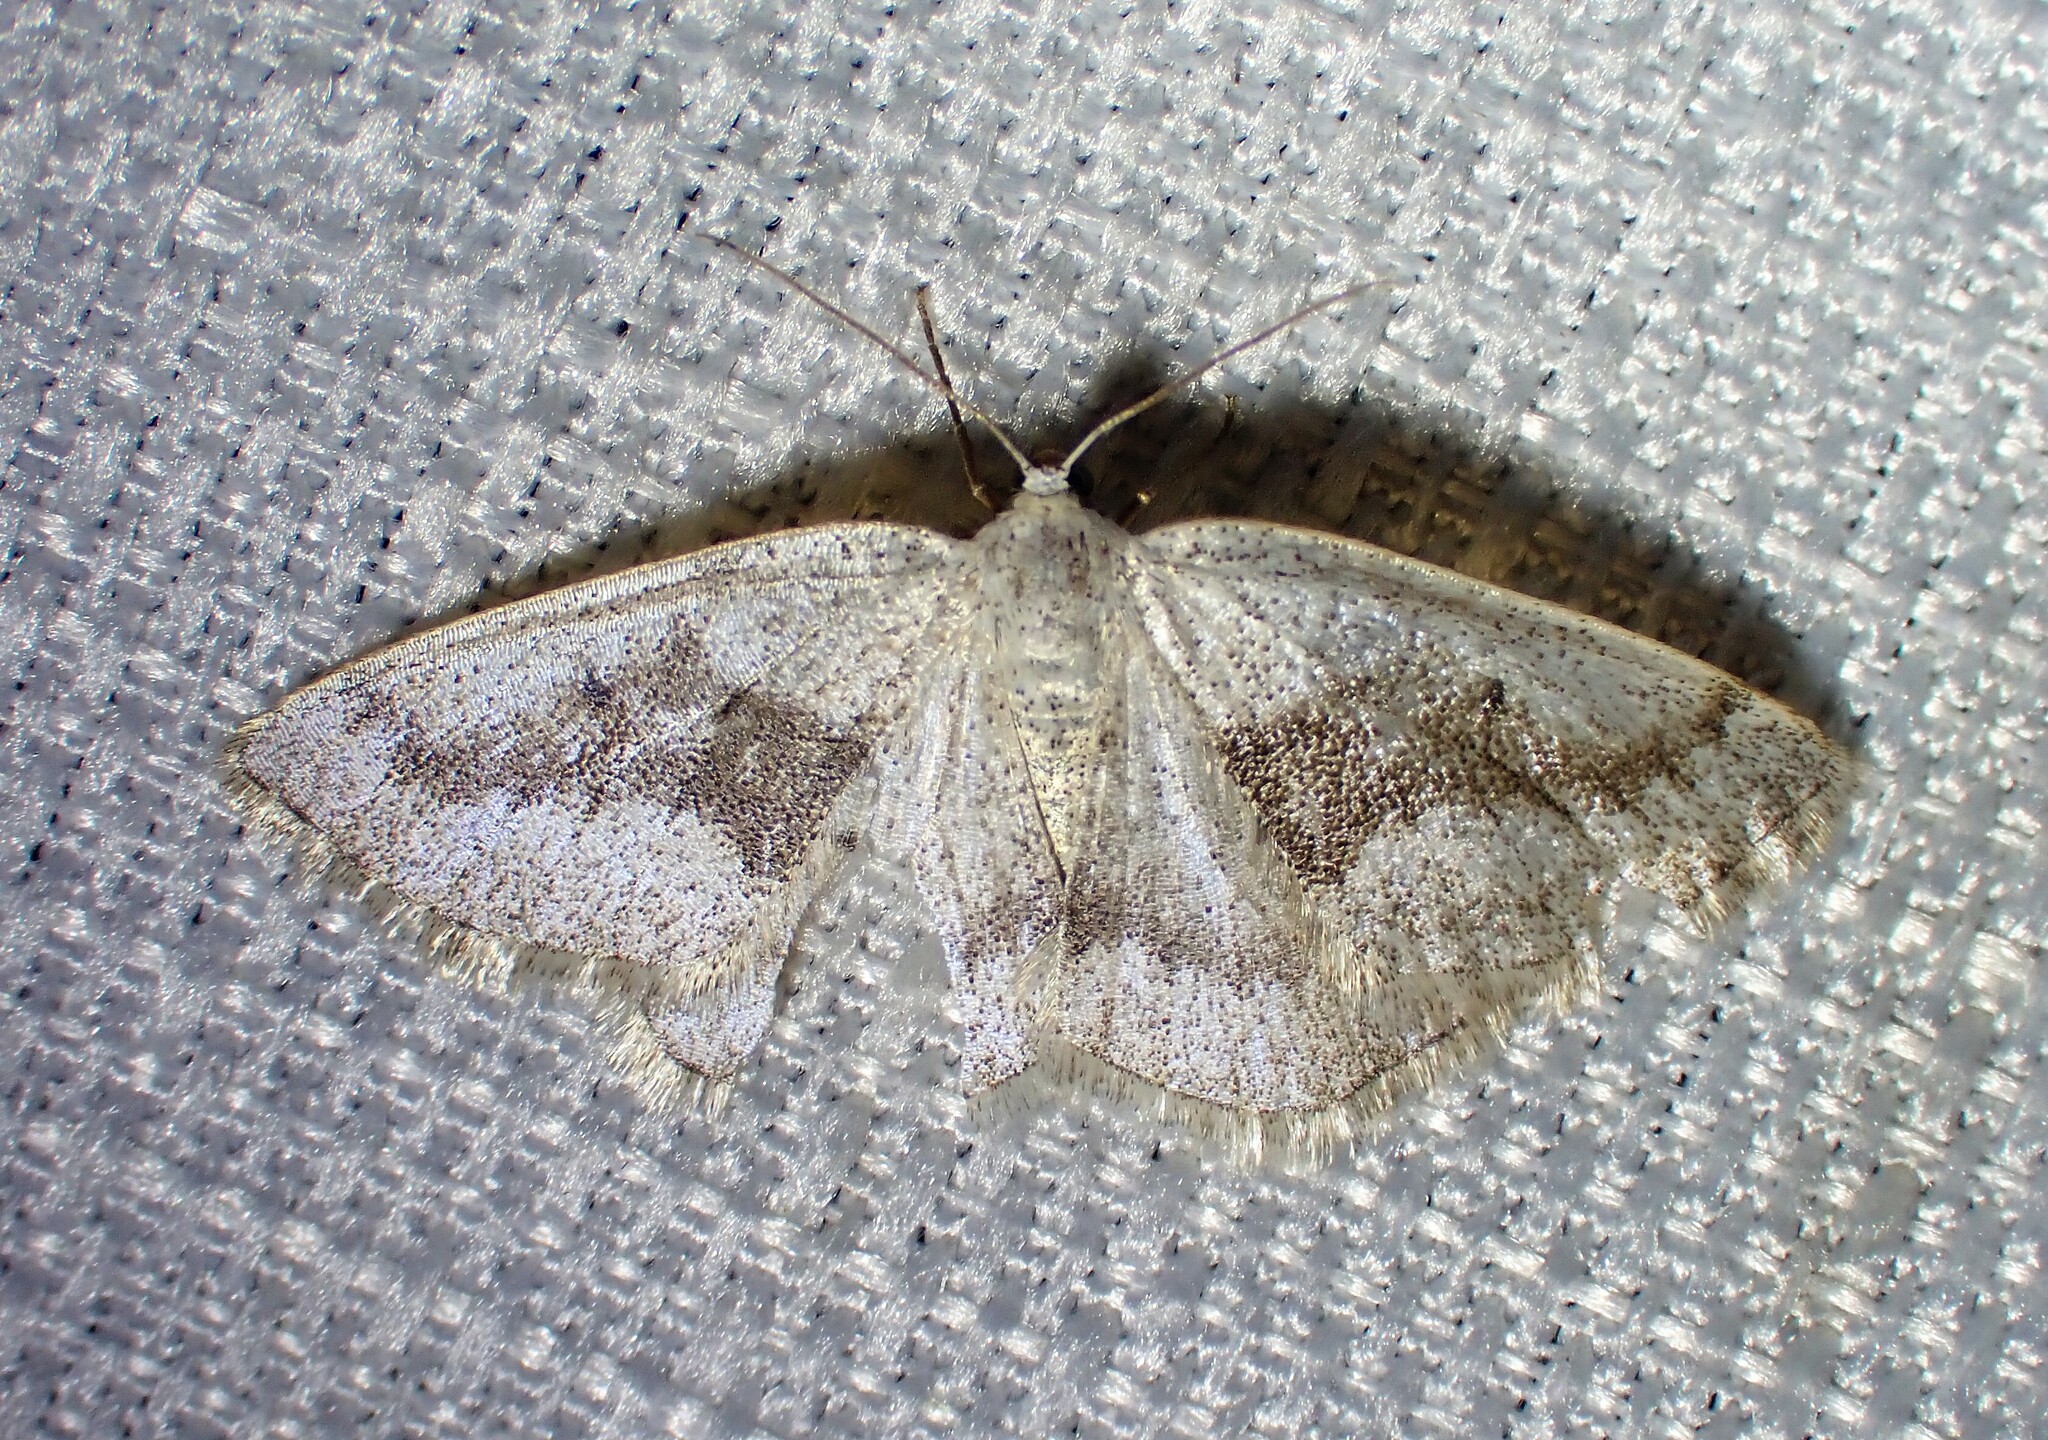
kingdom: Animalia
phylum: Arthropoda
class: Insecta
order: Lepidoptera
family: Geometridae
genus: Lomographa
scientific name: Lomographa glomeraria
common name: Gray spring moth
